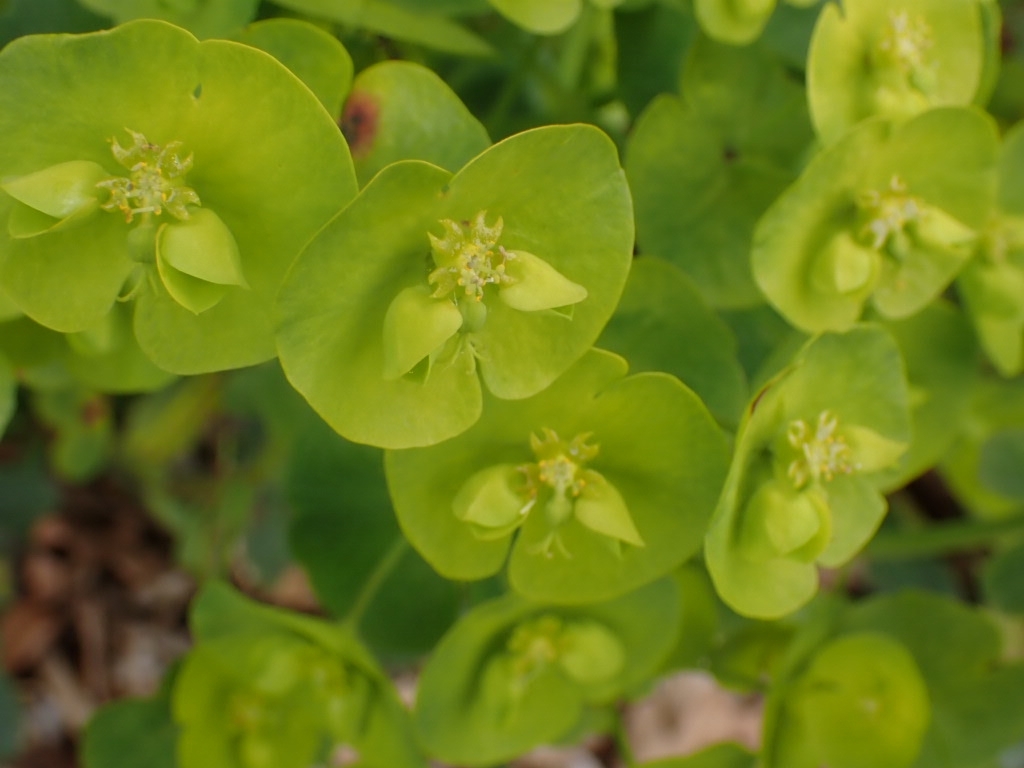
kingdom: Plantae
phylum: Tracheophyta
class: Magnoliopsida
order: Malpighiales
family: Euphorbiaceae
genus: Euphorbia
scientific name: Euphorbia amygdaloides
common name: Wood spurge
